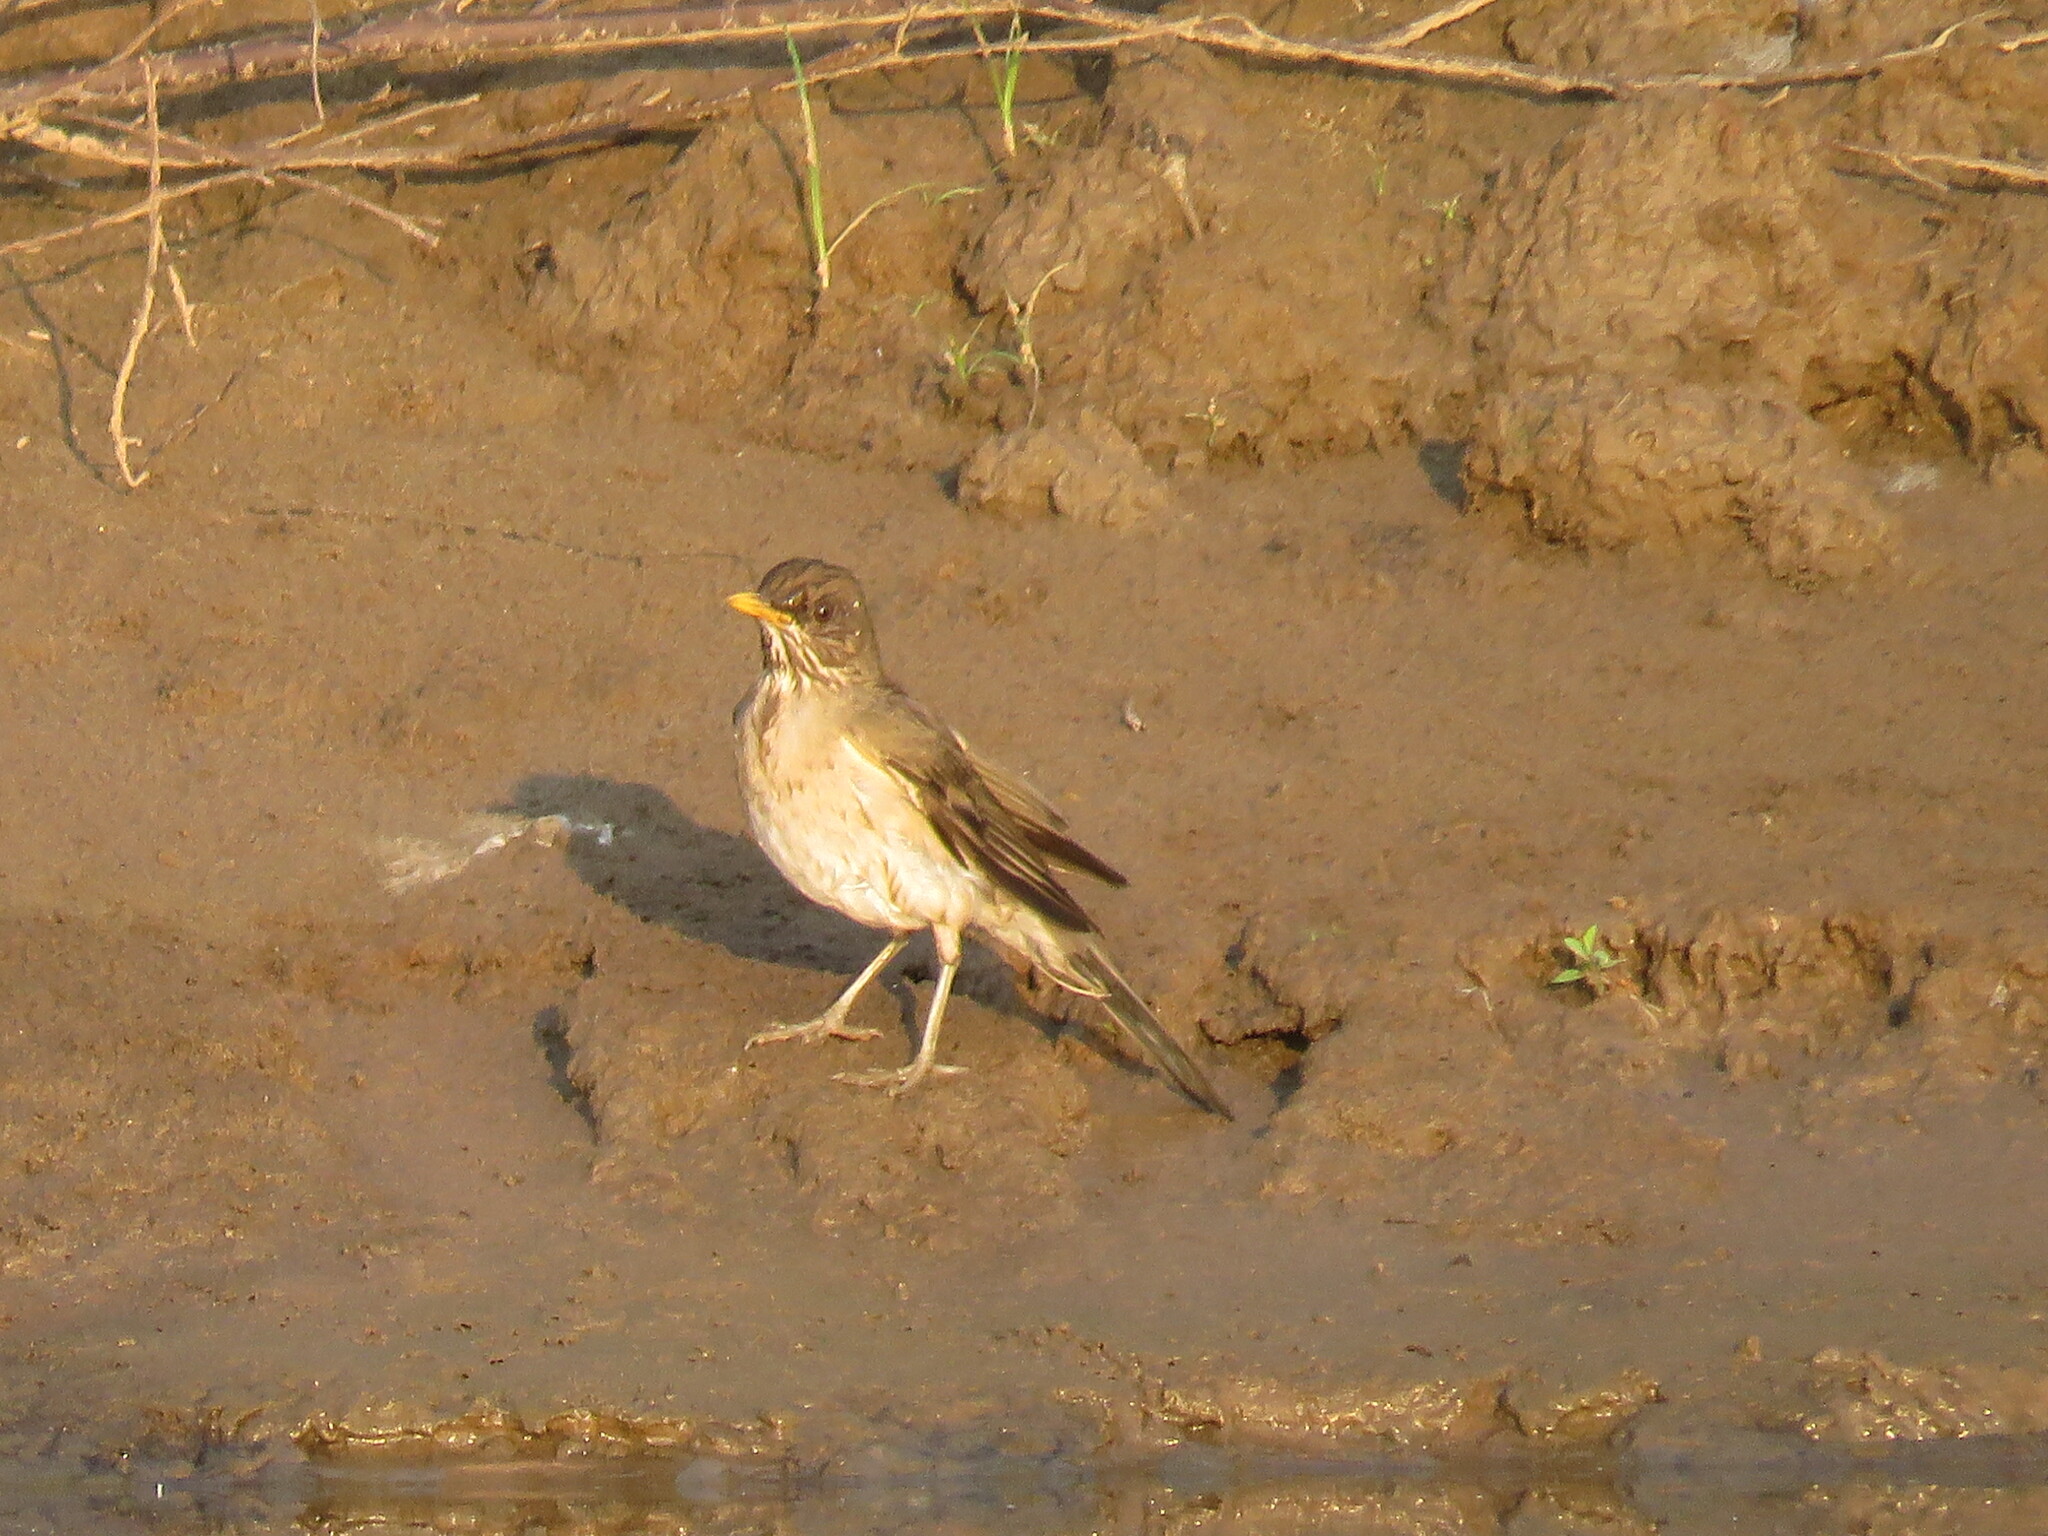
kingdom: Animalia
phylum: Chordata
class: Aves
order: Passeriformes
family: Turdidae
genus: Turdus
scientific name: Turdus amaurochalinus
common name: Creamy-bellied thrush
